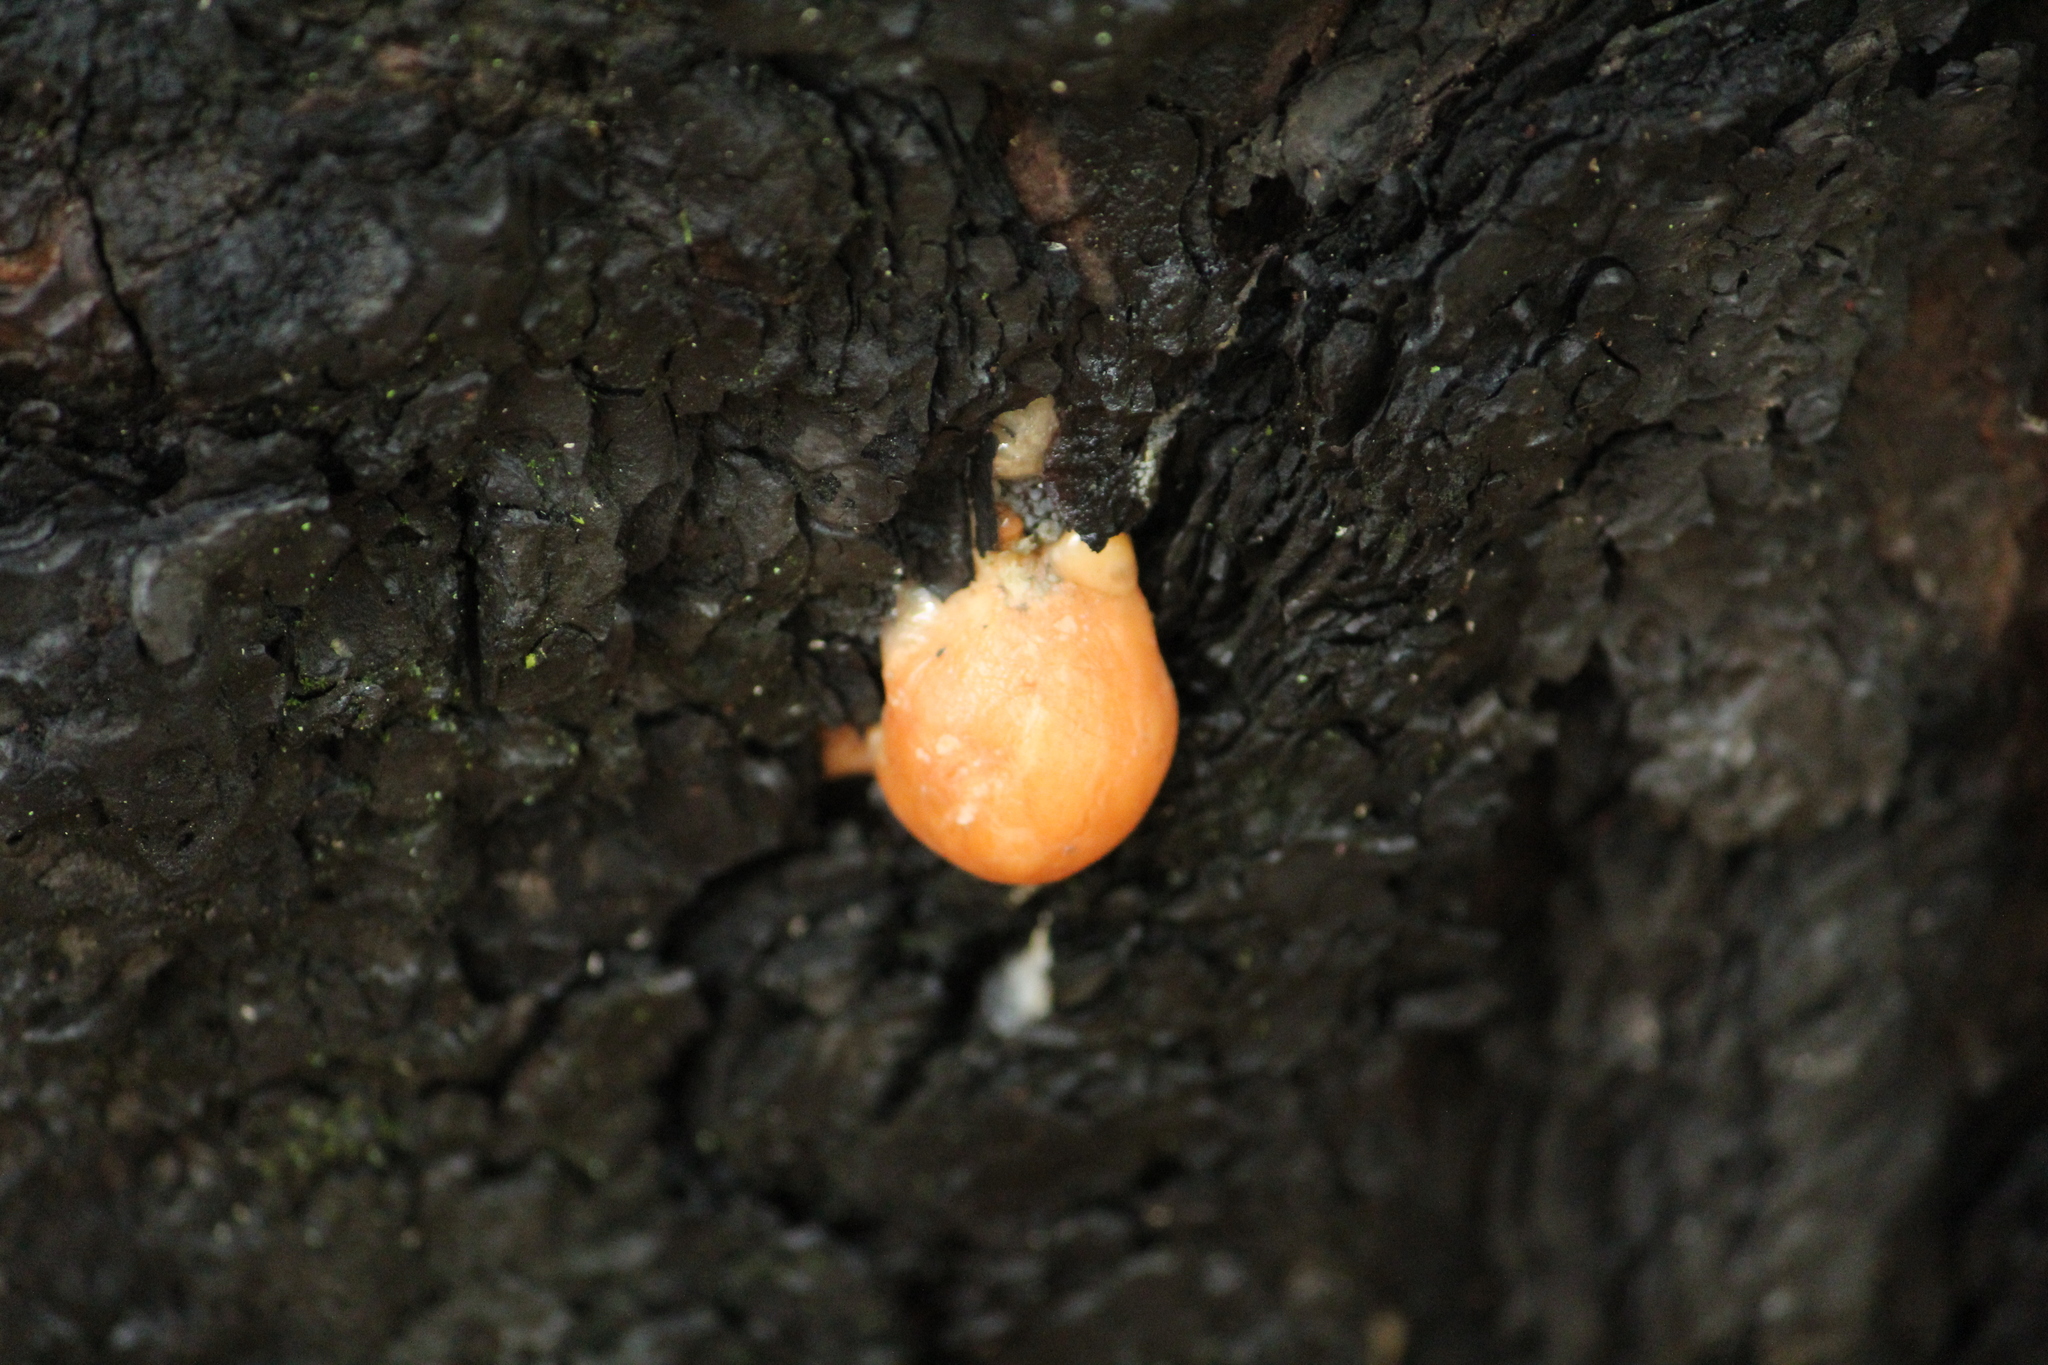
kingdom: Protozoa
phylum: Mycetozoa
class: Myxomycetes
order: Cribrariales
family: Tubiferaceae
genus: Lycogala
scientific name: Lycogala epidendrum
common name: Wolf's milk
